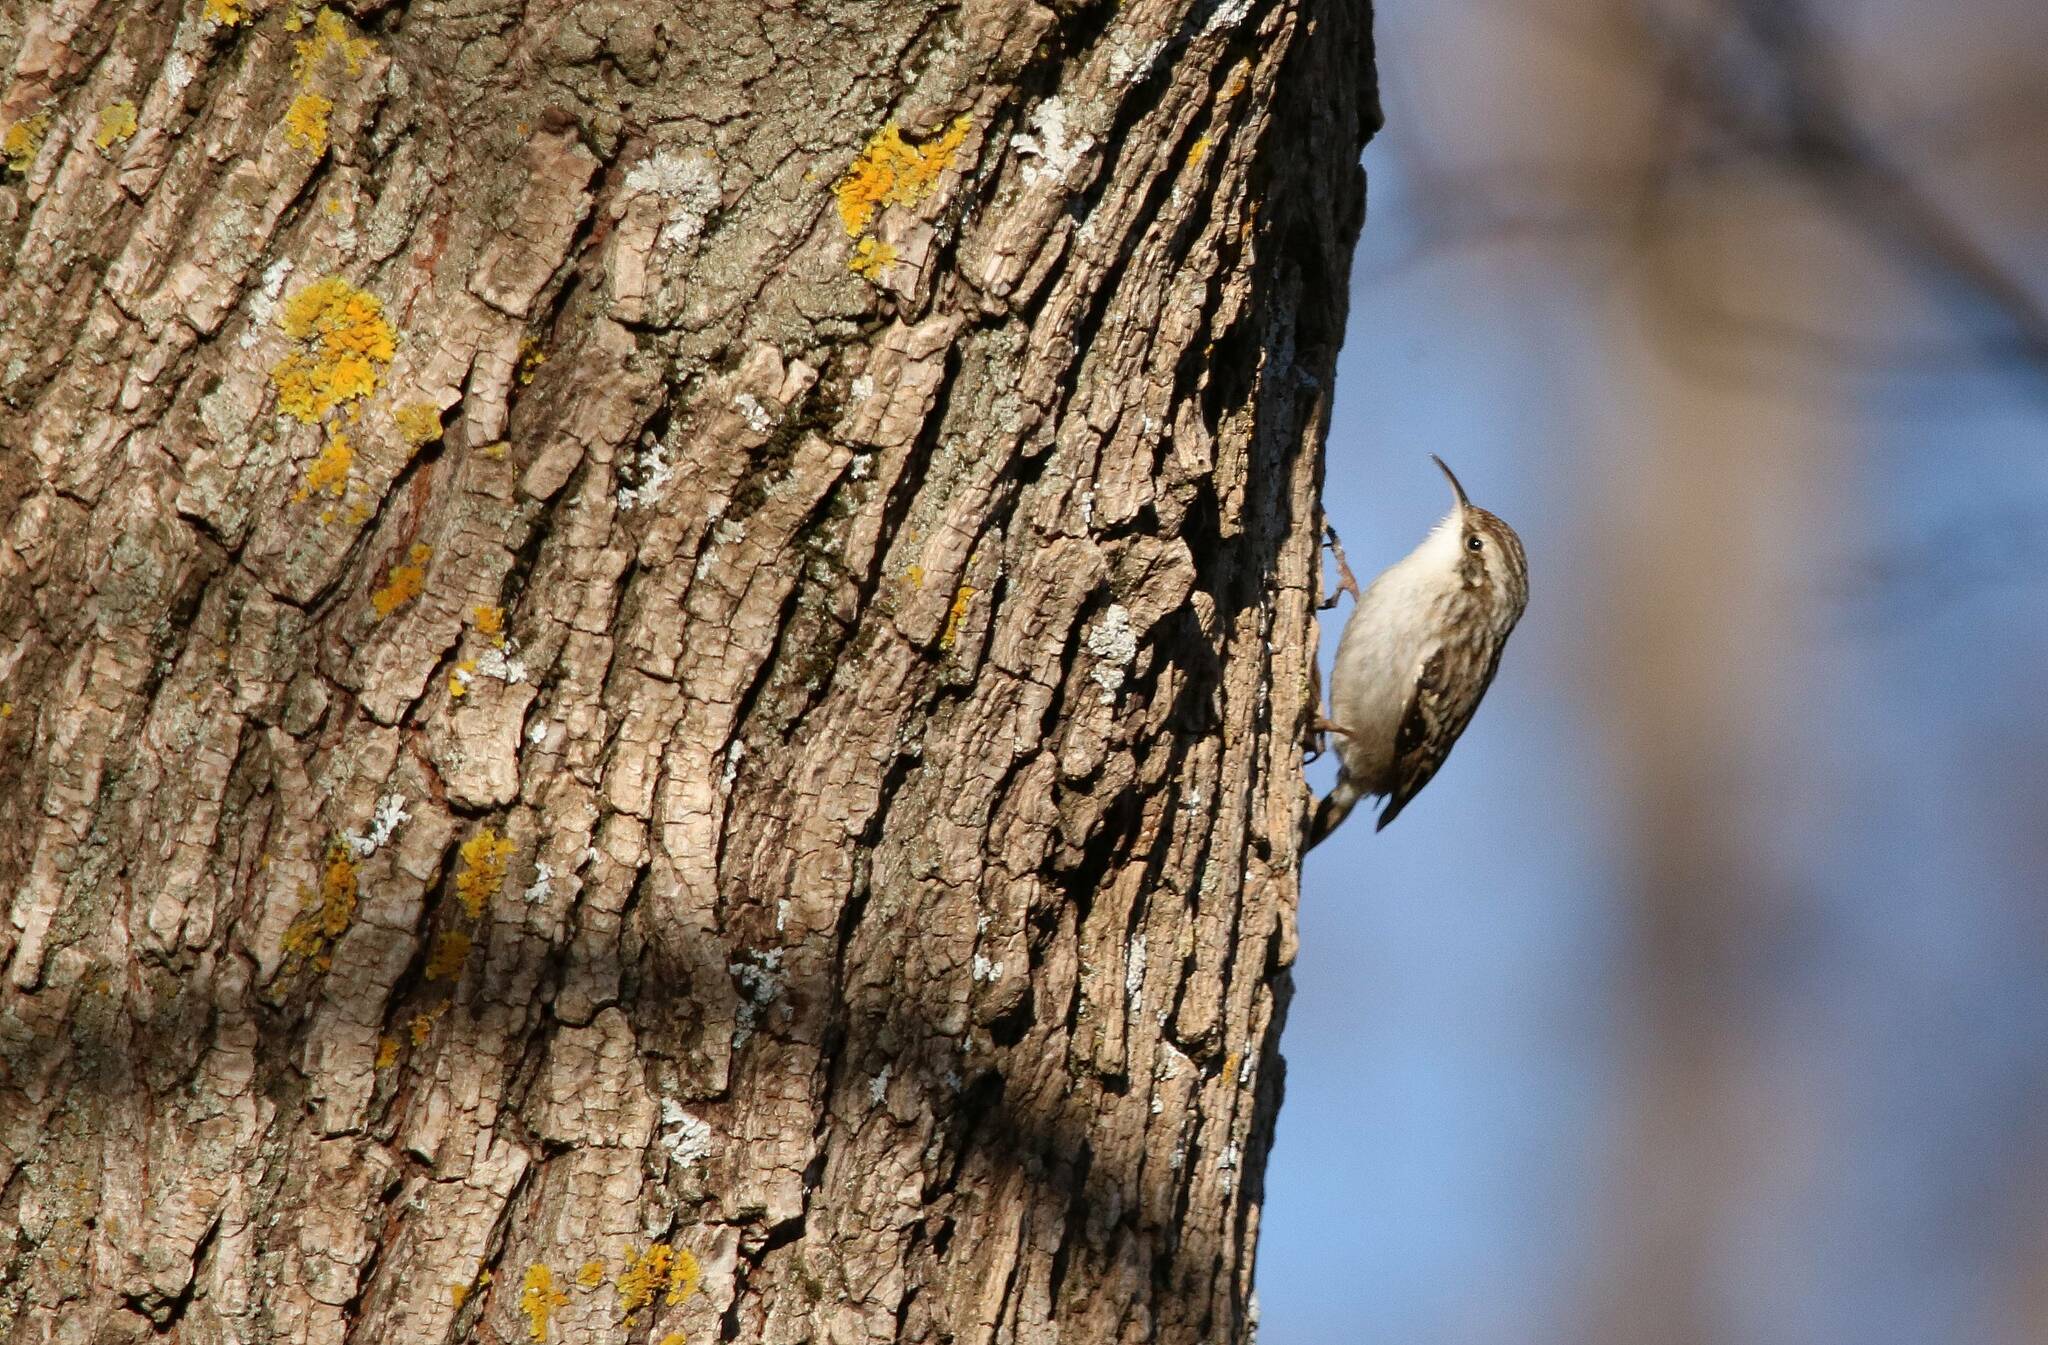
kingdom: Animalia
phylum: Chordata
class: Aves
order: Passeriformes
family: Certhiidae
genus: Certhia
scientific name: Certhia brachydactyla
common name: Short-toed treecreeper
